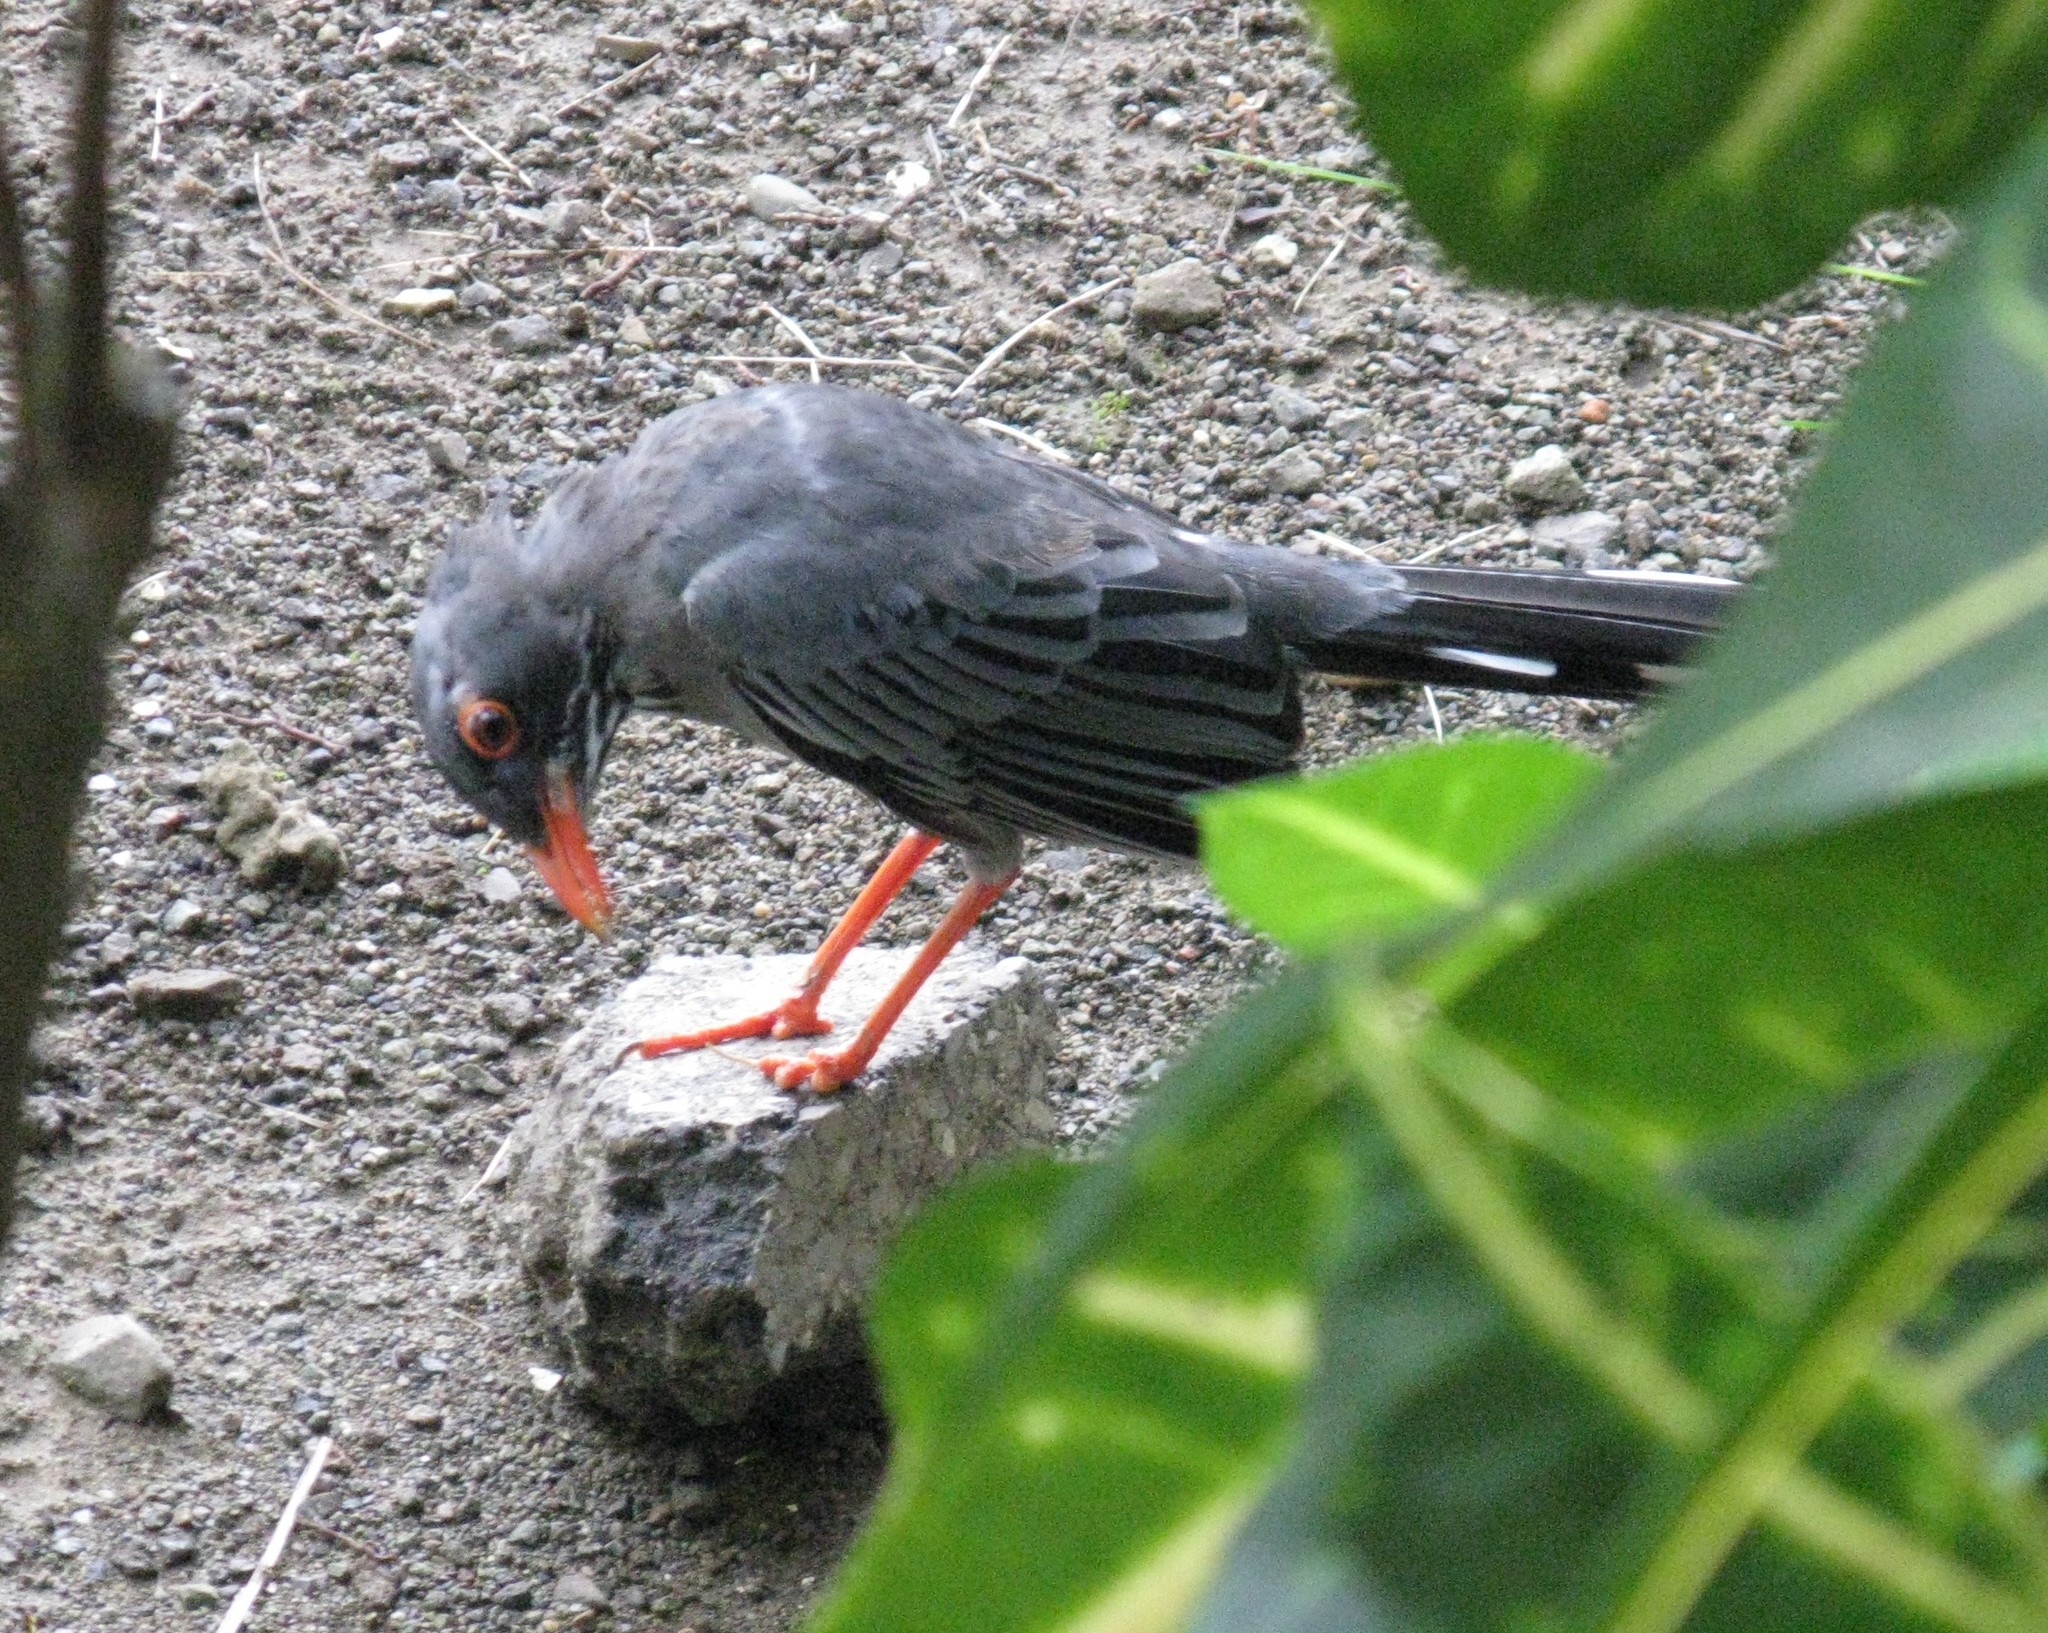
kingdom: Animalia
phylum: Chordata
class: Aves
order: Passeriformes
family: Turdidae
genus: Turdus
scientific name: Turdus plumbeus
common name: Red-legged thrush
